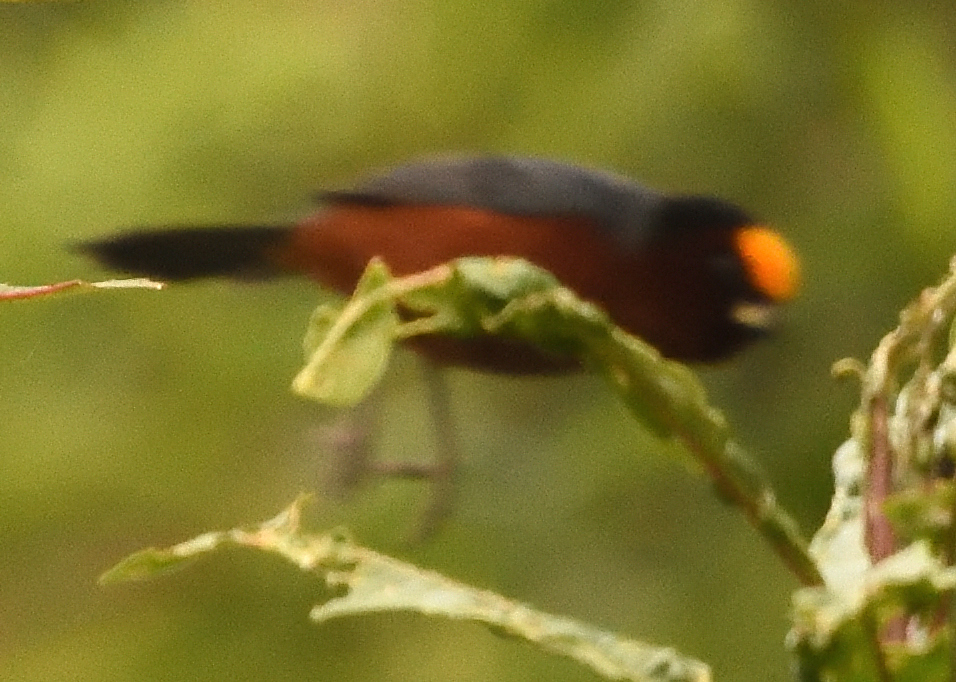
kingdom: Animalia
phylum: Chordata
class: Aves
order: Passeriformes
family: Thraupidae
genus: Catamblyrhynchus
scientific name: Catamblyrhynchus diadema
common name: Plushcap
